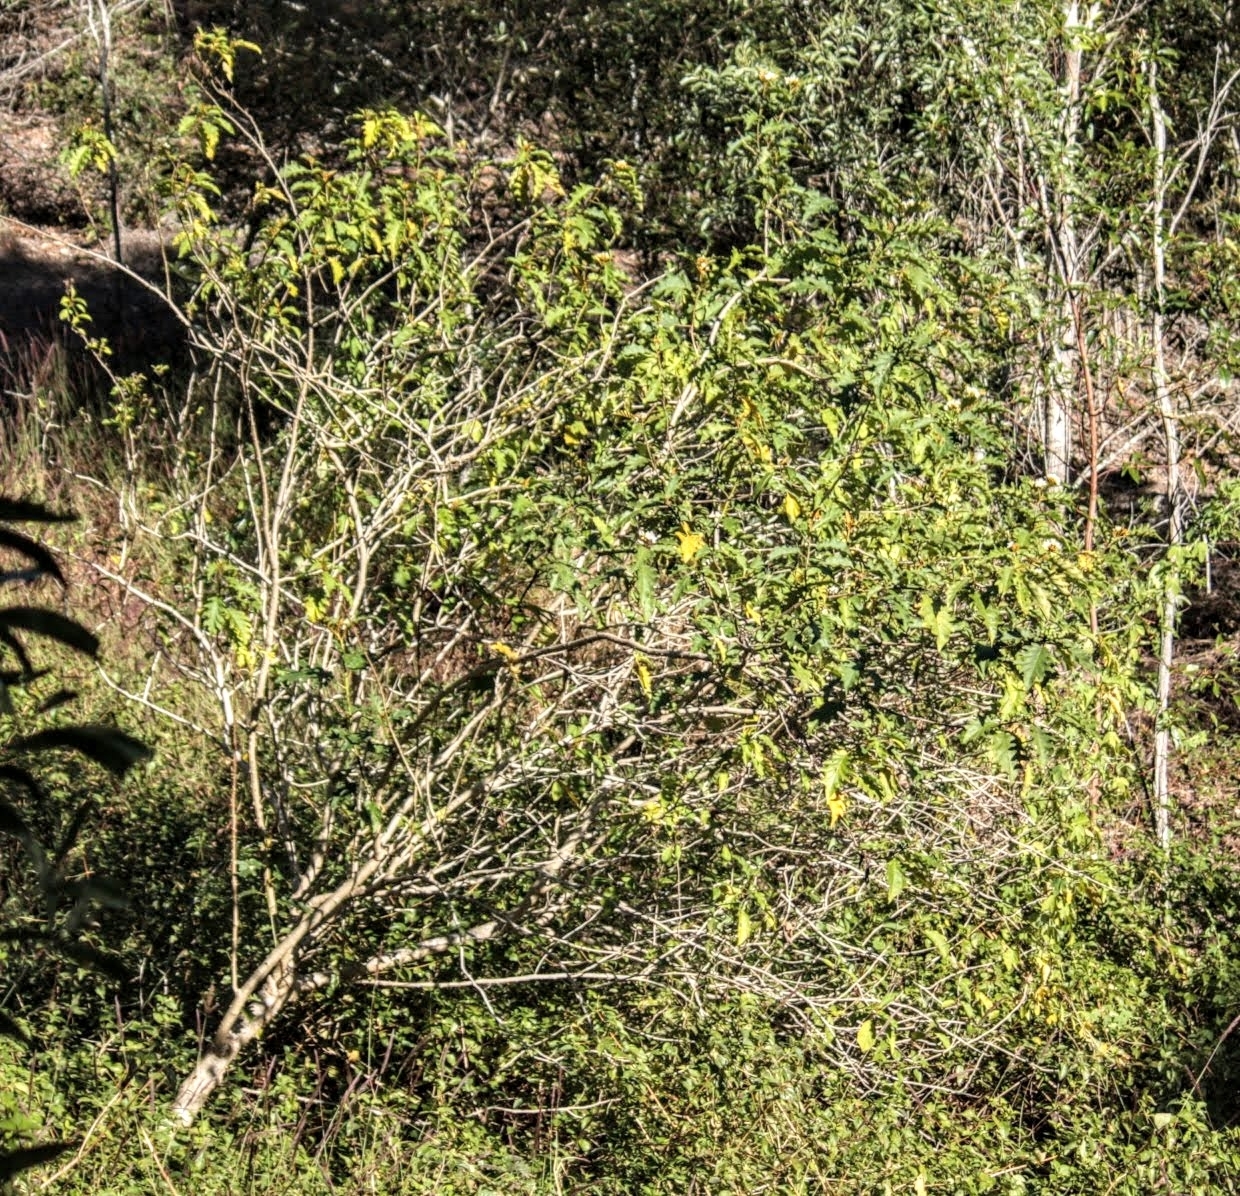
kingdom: Plantae
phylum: Tracheophyta
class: Magnoliopsida
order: Solanales
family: Solanaceae
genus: Solanum
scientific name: Solanum chrysotrichum
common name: Nightshade
